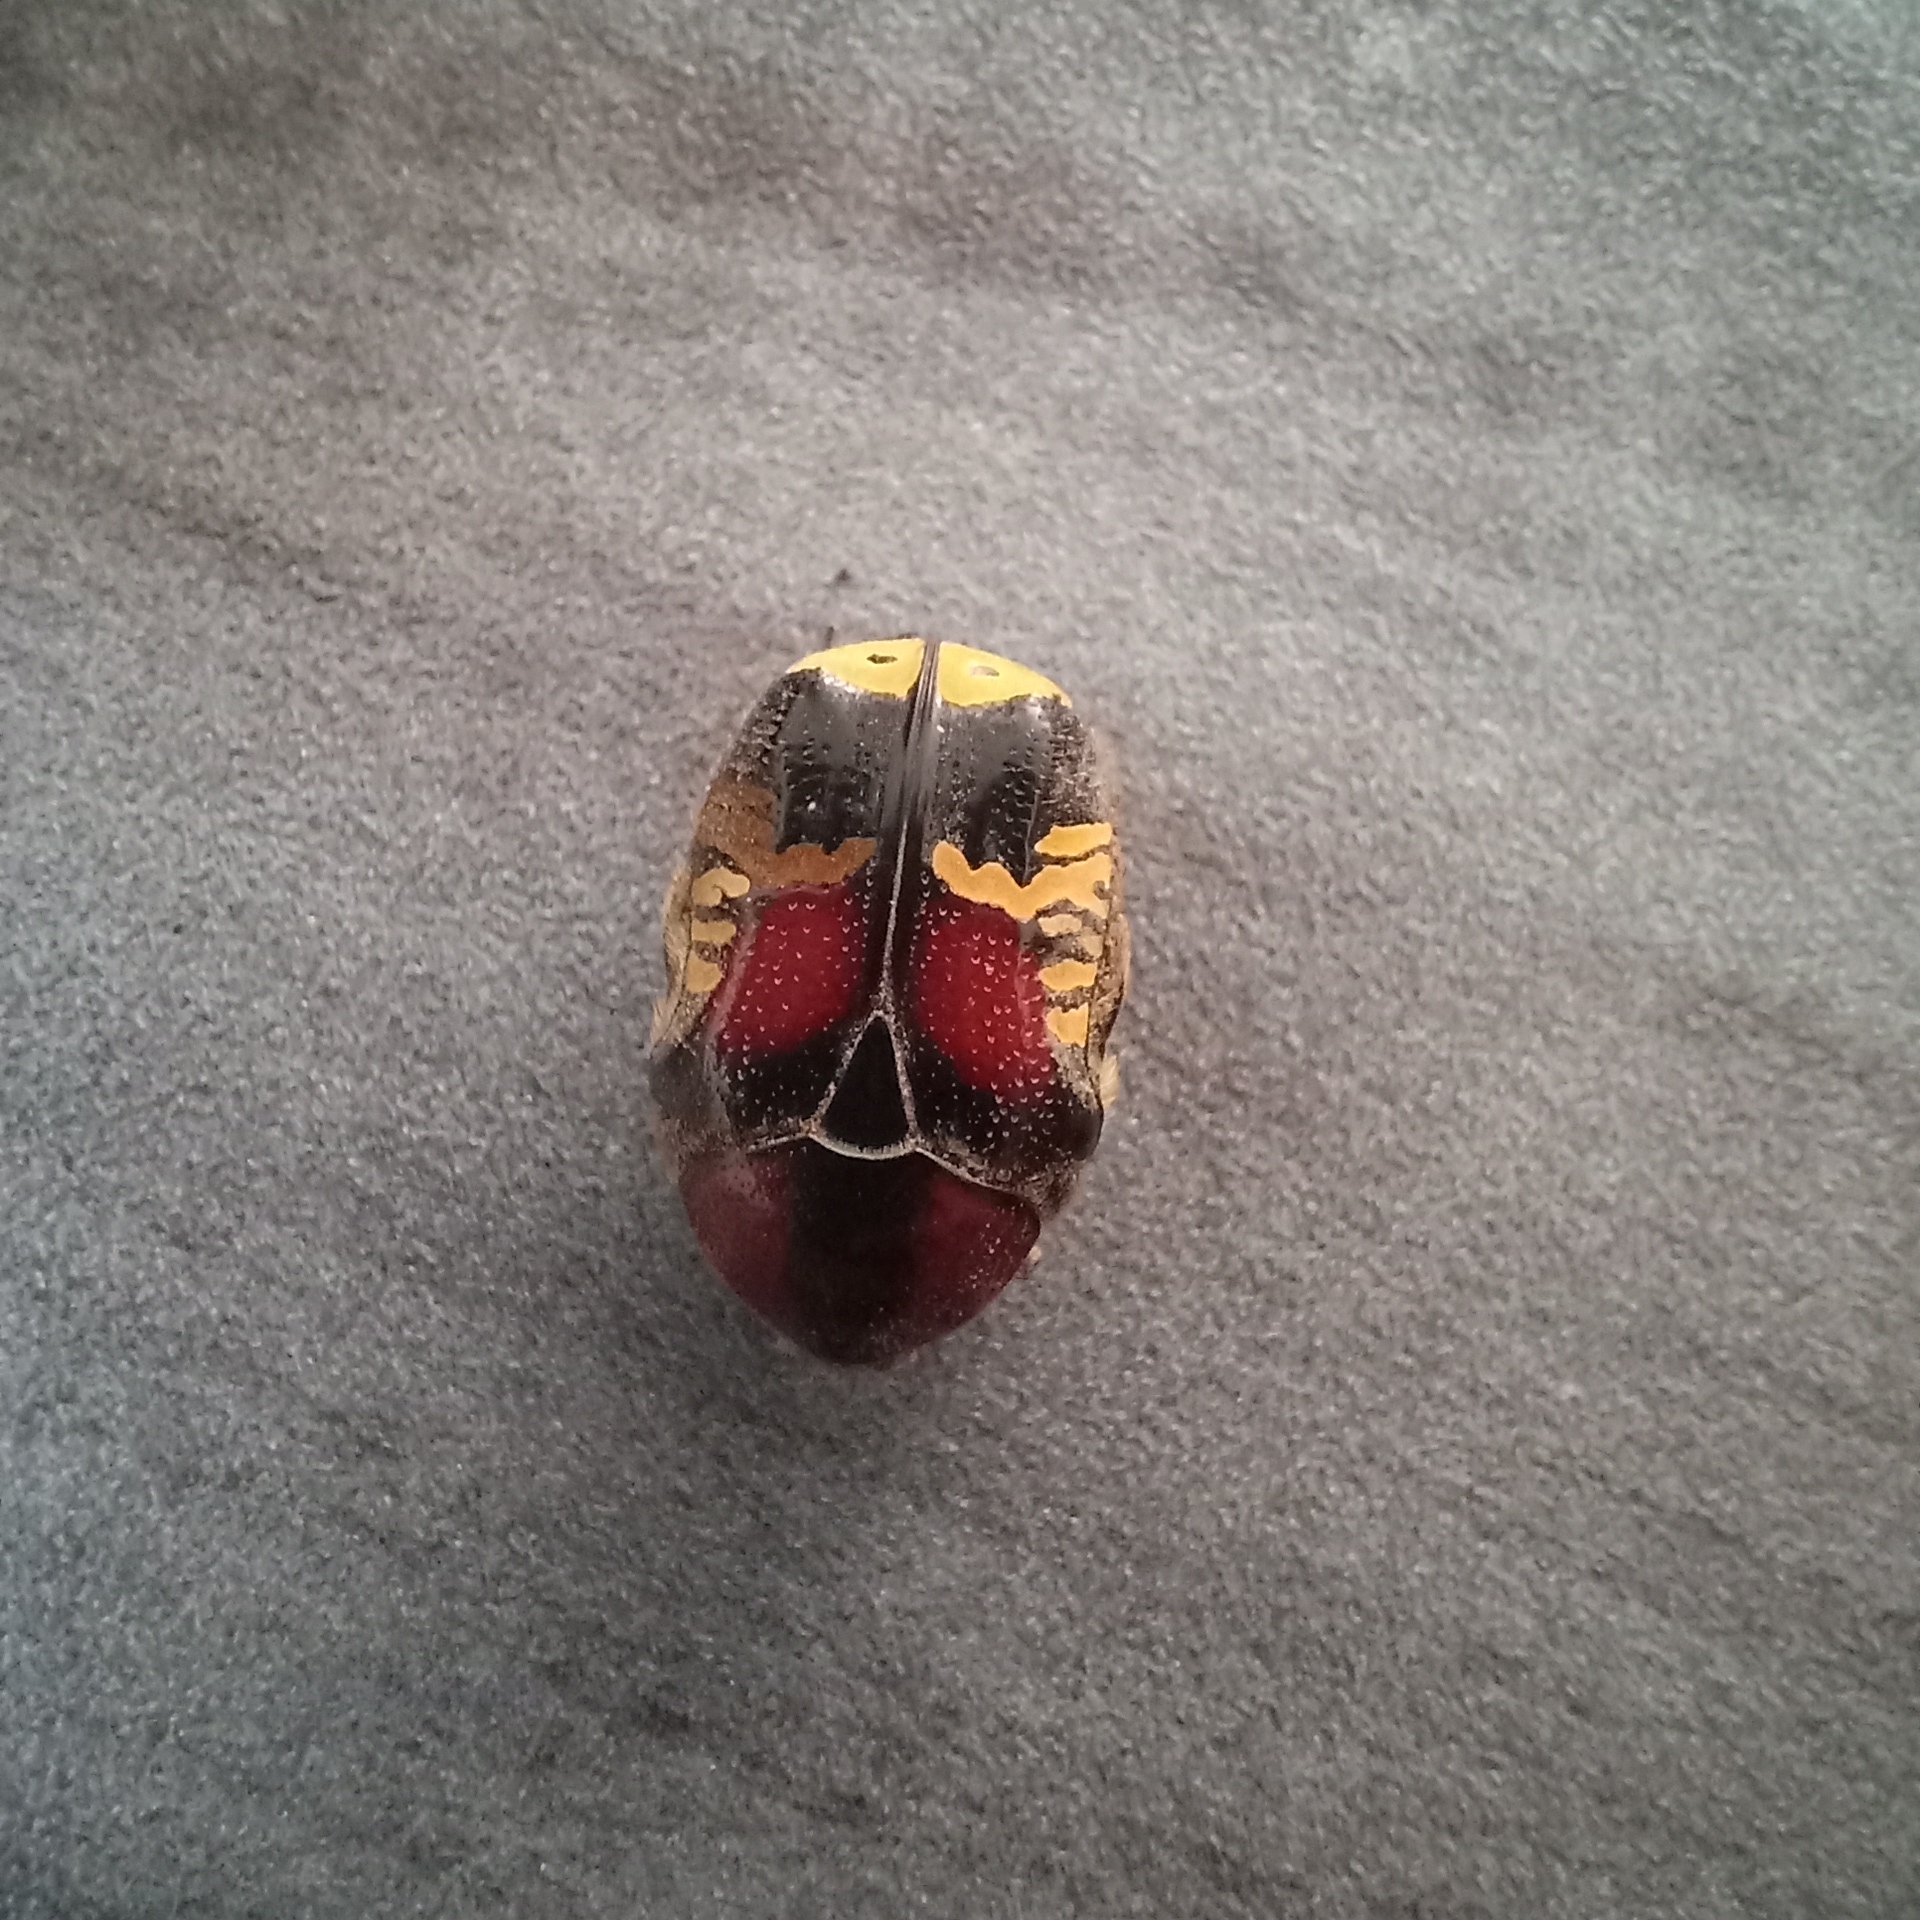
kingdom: Animalia
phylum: Arthropoda
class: Insecta
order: Coleoptera
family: Scarabaeidae
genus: Euphoria
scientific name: Euphoria biguttata
